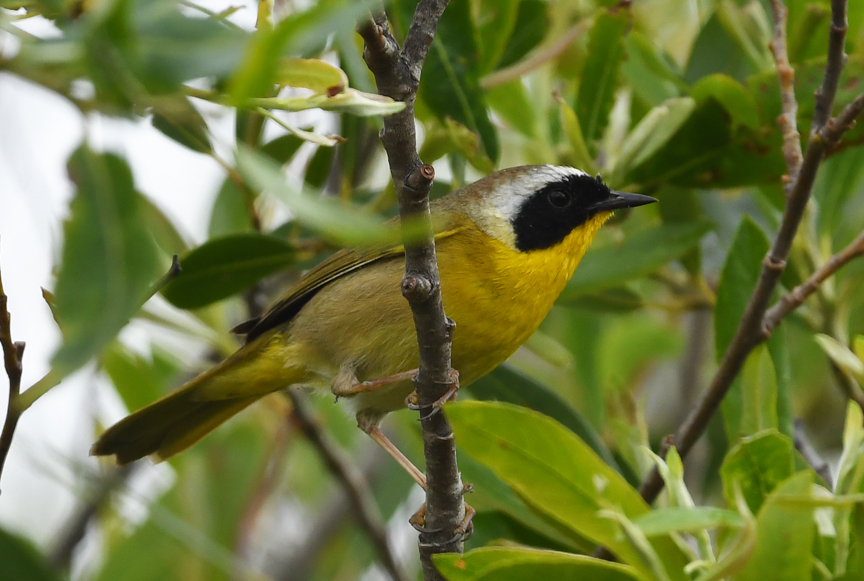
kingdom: Animalia
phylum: Chordata
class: Aves
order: Passeriformes
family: Parulidae
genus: Geothlypis
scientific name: Geothlypis trichas
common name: Common yellowthroat
